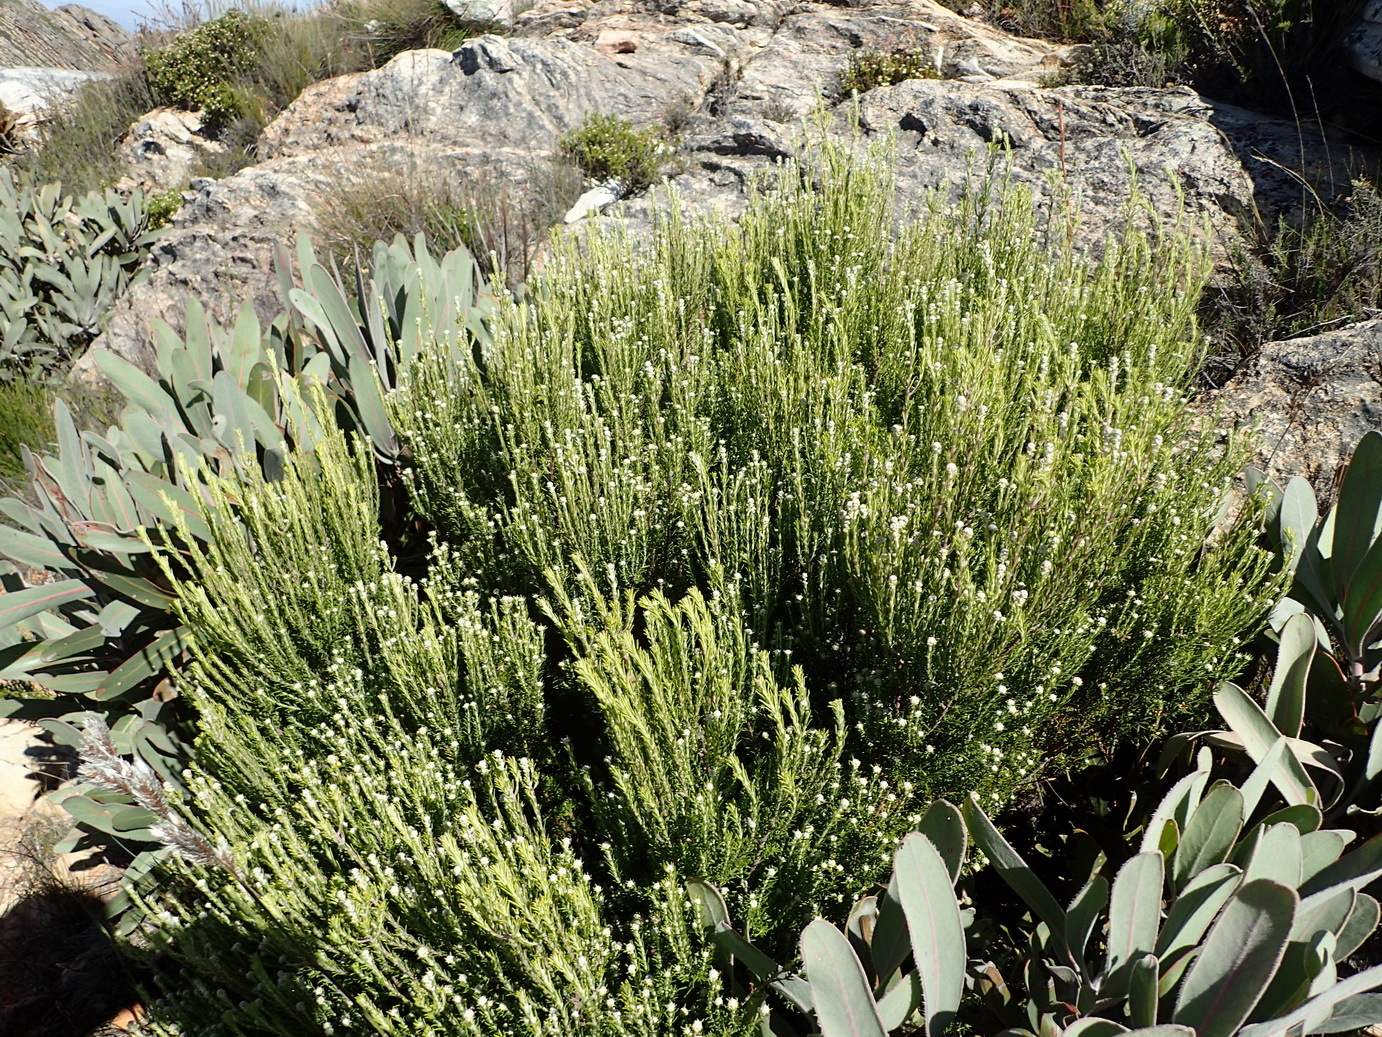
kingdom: Plantae
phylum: Tracheophyta
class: Magnoliopsida
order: Rosales
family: Rhamnaceae
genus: Phylica
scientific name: Phylica wittebergensis
